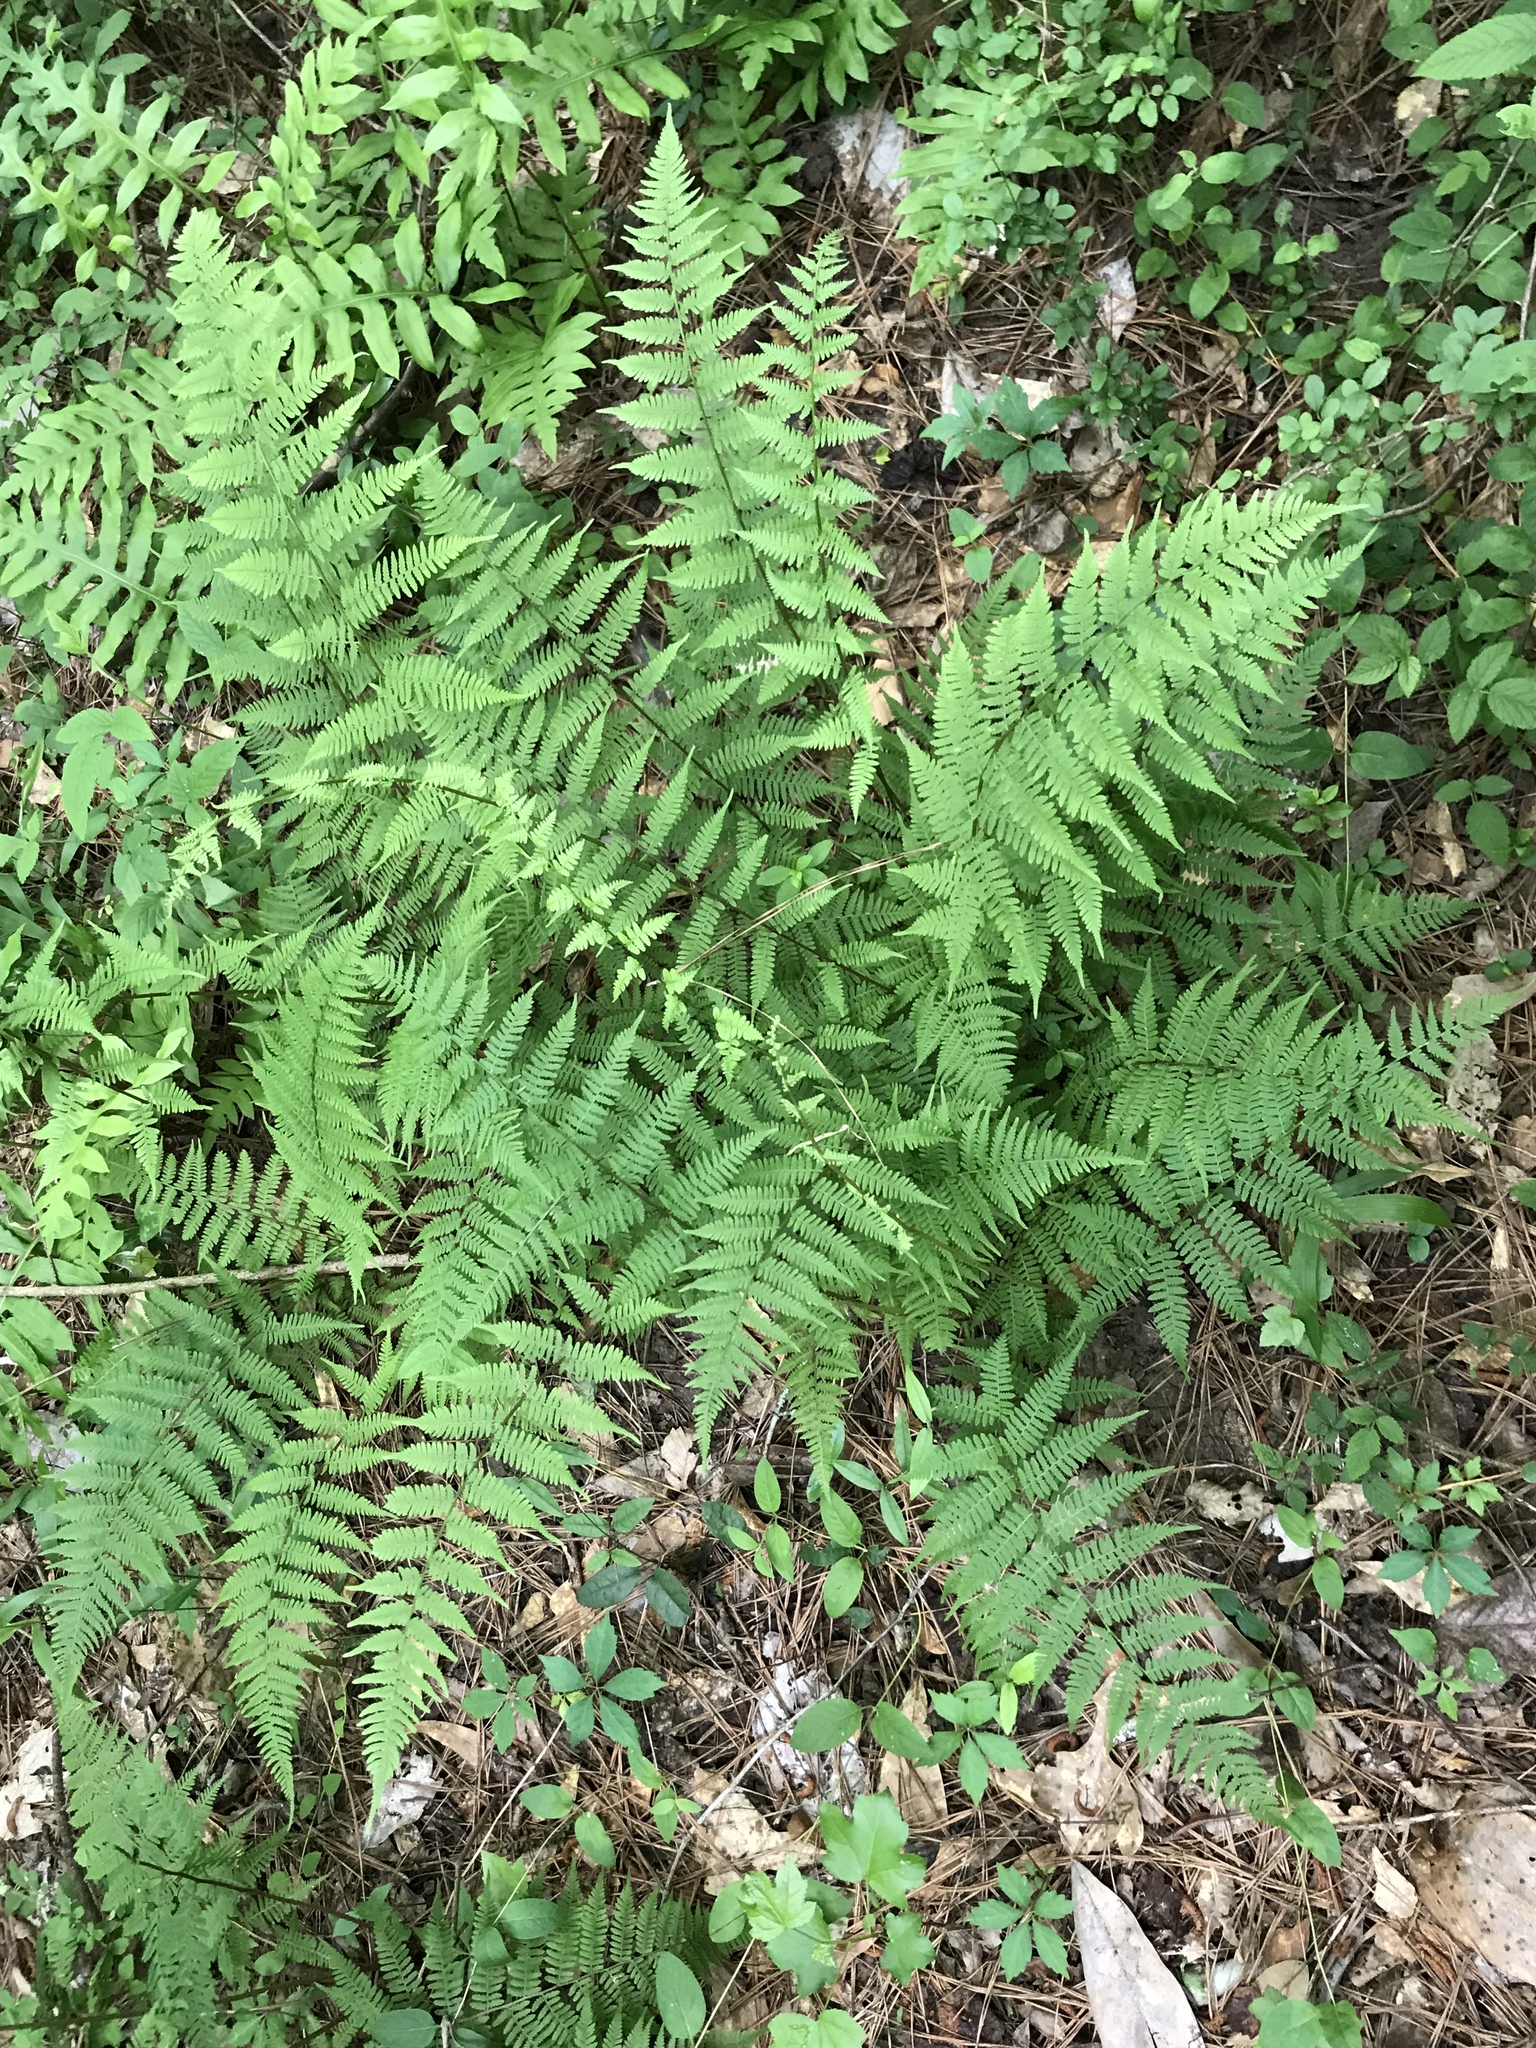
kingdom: Plantae
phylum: Tracheophyta
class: Polypodiopsida
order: Polypodiales
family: Athyriaceae
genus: Athyrium
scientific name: Athyrium asplenioides
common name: Southern lady fern
